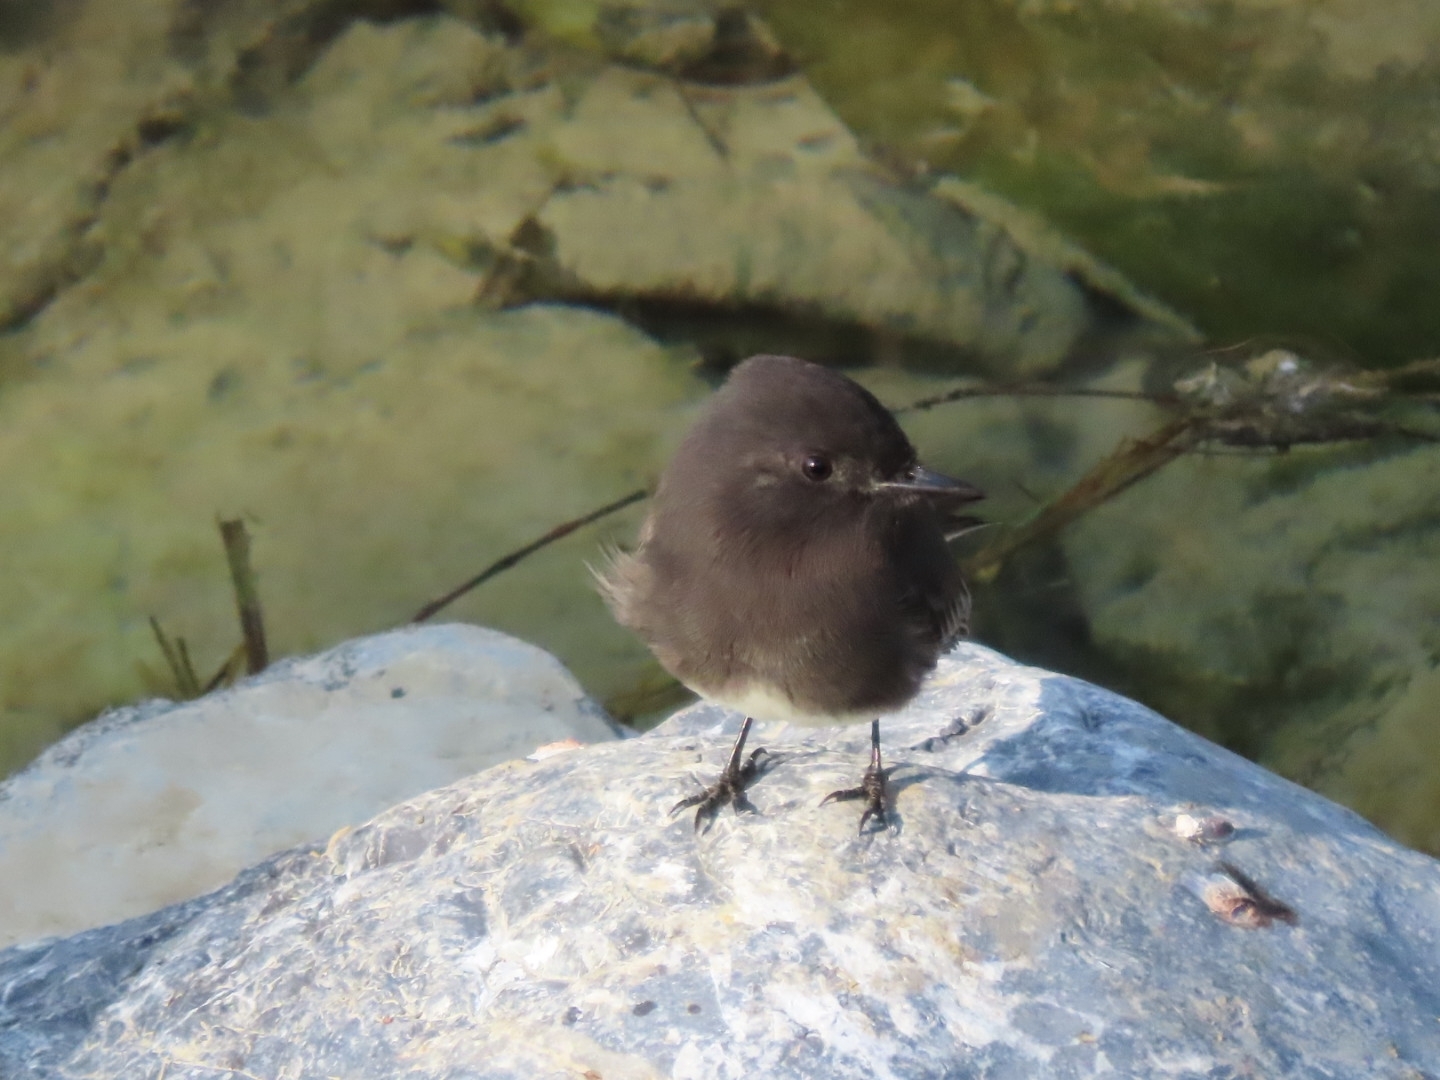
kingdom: Animalia
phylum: Chordata
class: Aves
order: Passeriformes
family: Tyrannidae
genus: Sayornis
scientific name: Sayornis nigricans
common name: Black phoebe
